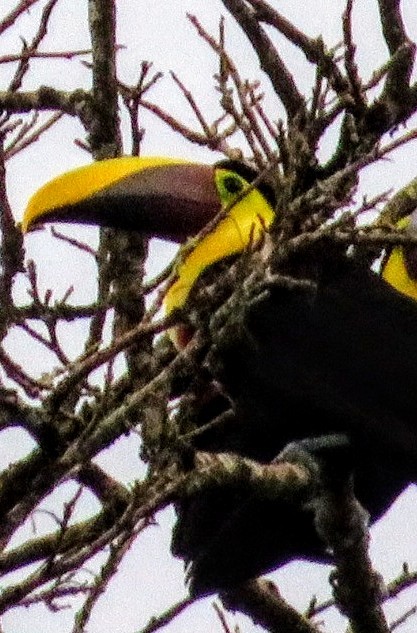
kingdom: Animalia
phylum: Chordata
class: Aves
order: Piciformes
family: Ramphastidae
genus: Ramphastos
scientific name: Ramphastos ambiguus
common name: Yellow-throated toucan
